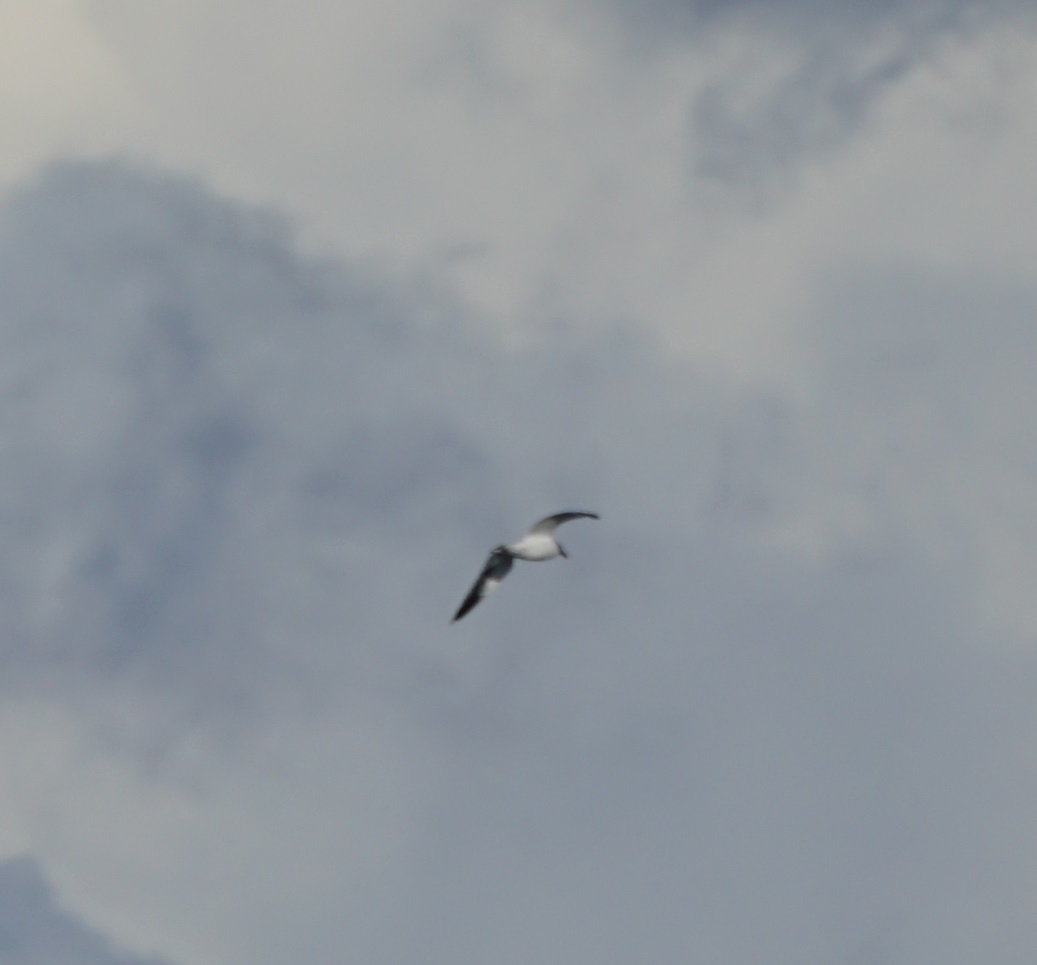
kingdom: Animalia
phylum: Chordata
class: Aves
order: Charadriiformes
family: Laridae
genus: Larus
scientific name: Larus dominicanus
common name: Kelp gull
